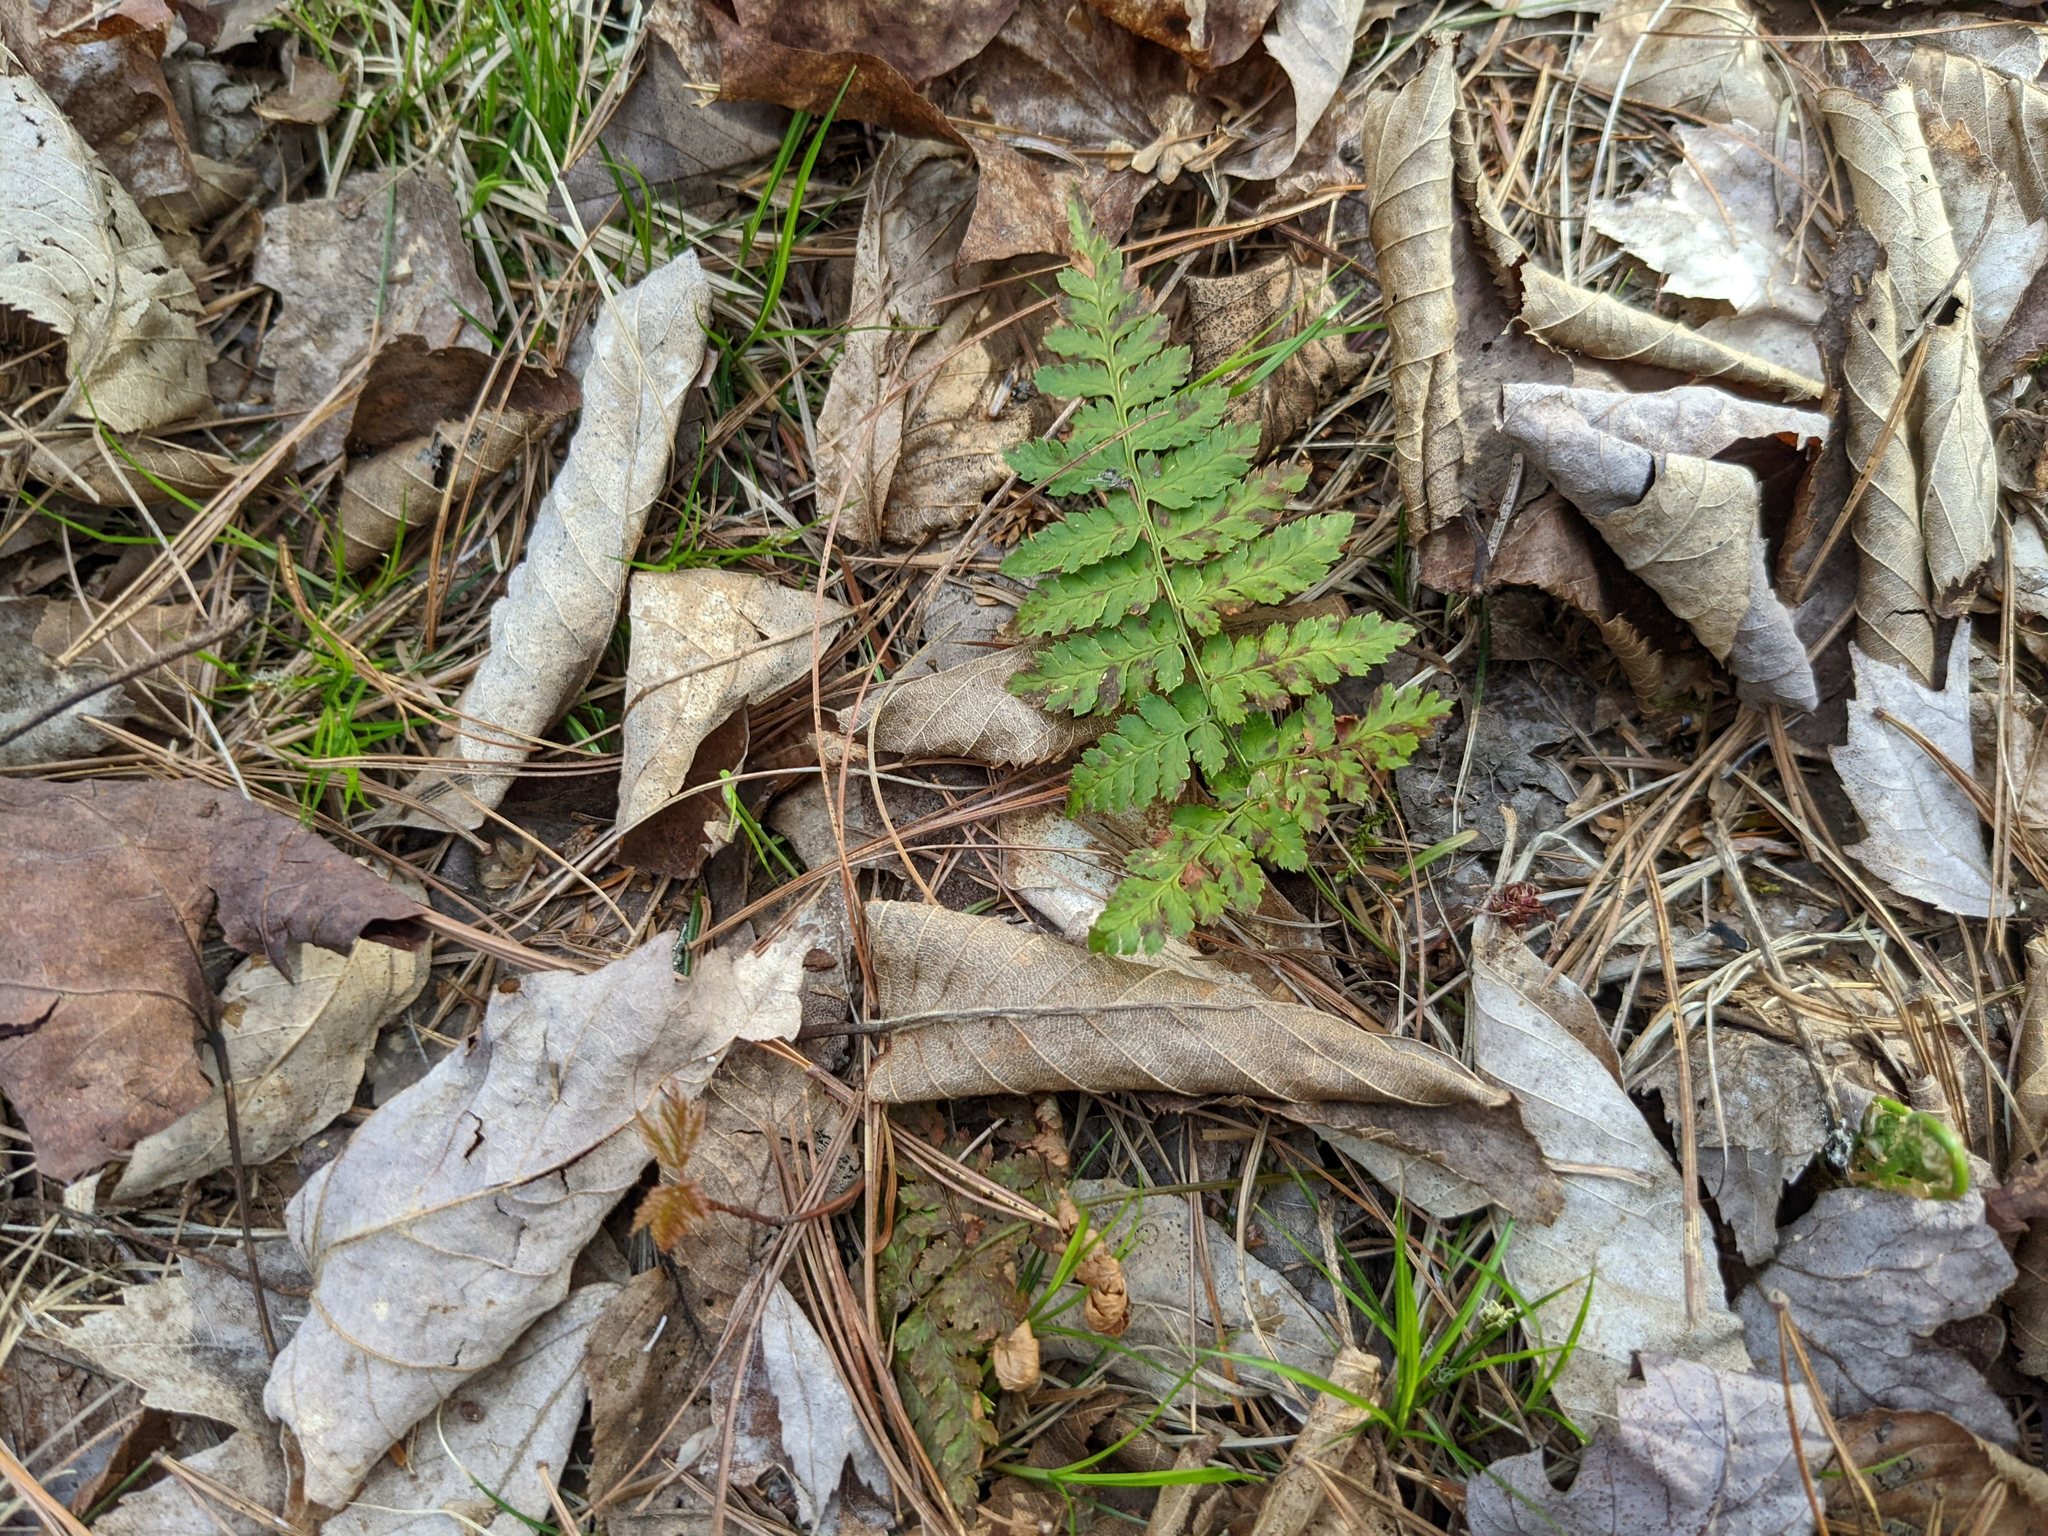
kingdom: Plantae
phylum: Tracheophyta
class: Polypodiopsida
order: Polypodiales
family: Dryopteridaceae
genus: Dryopteris
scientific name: Dryopteris intermedia
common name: Evergreen wood fern
